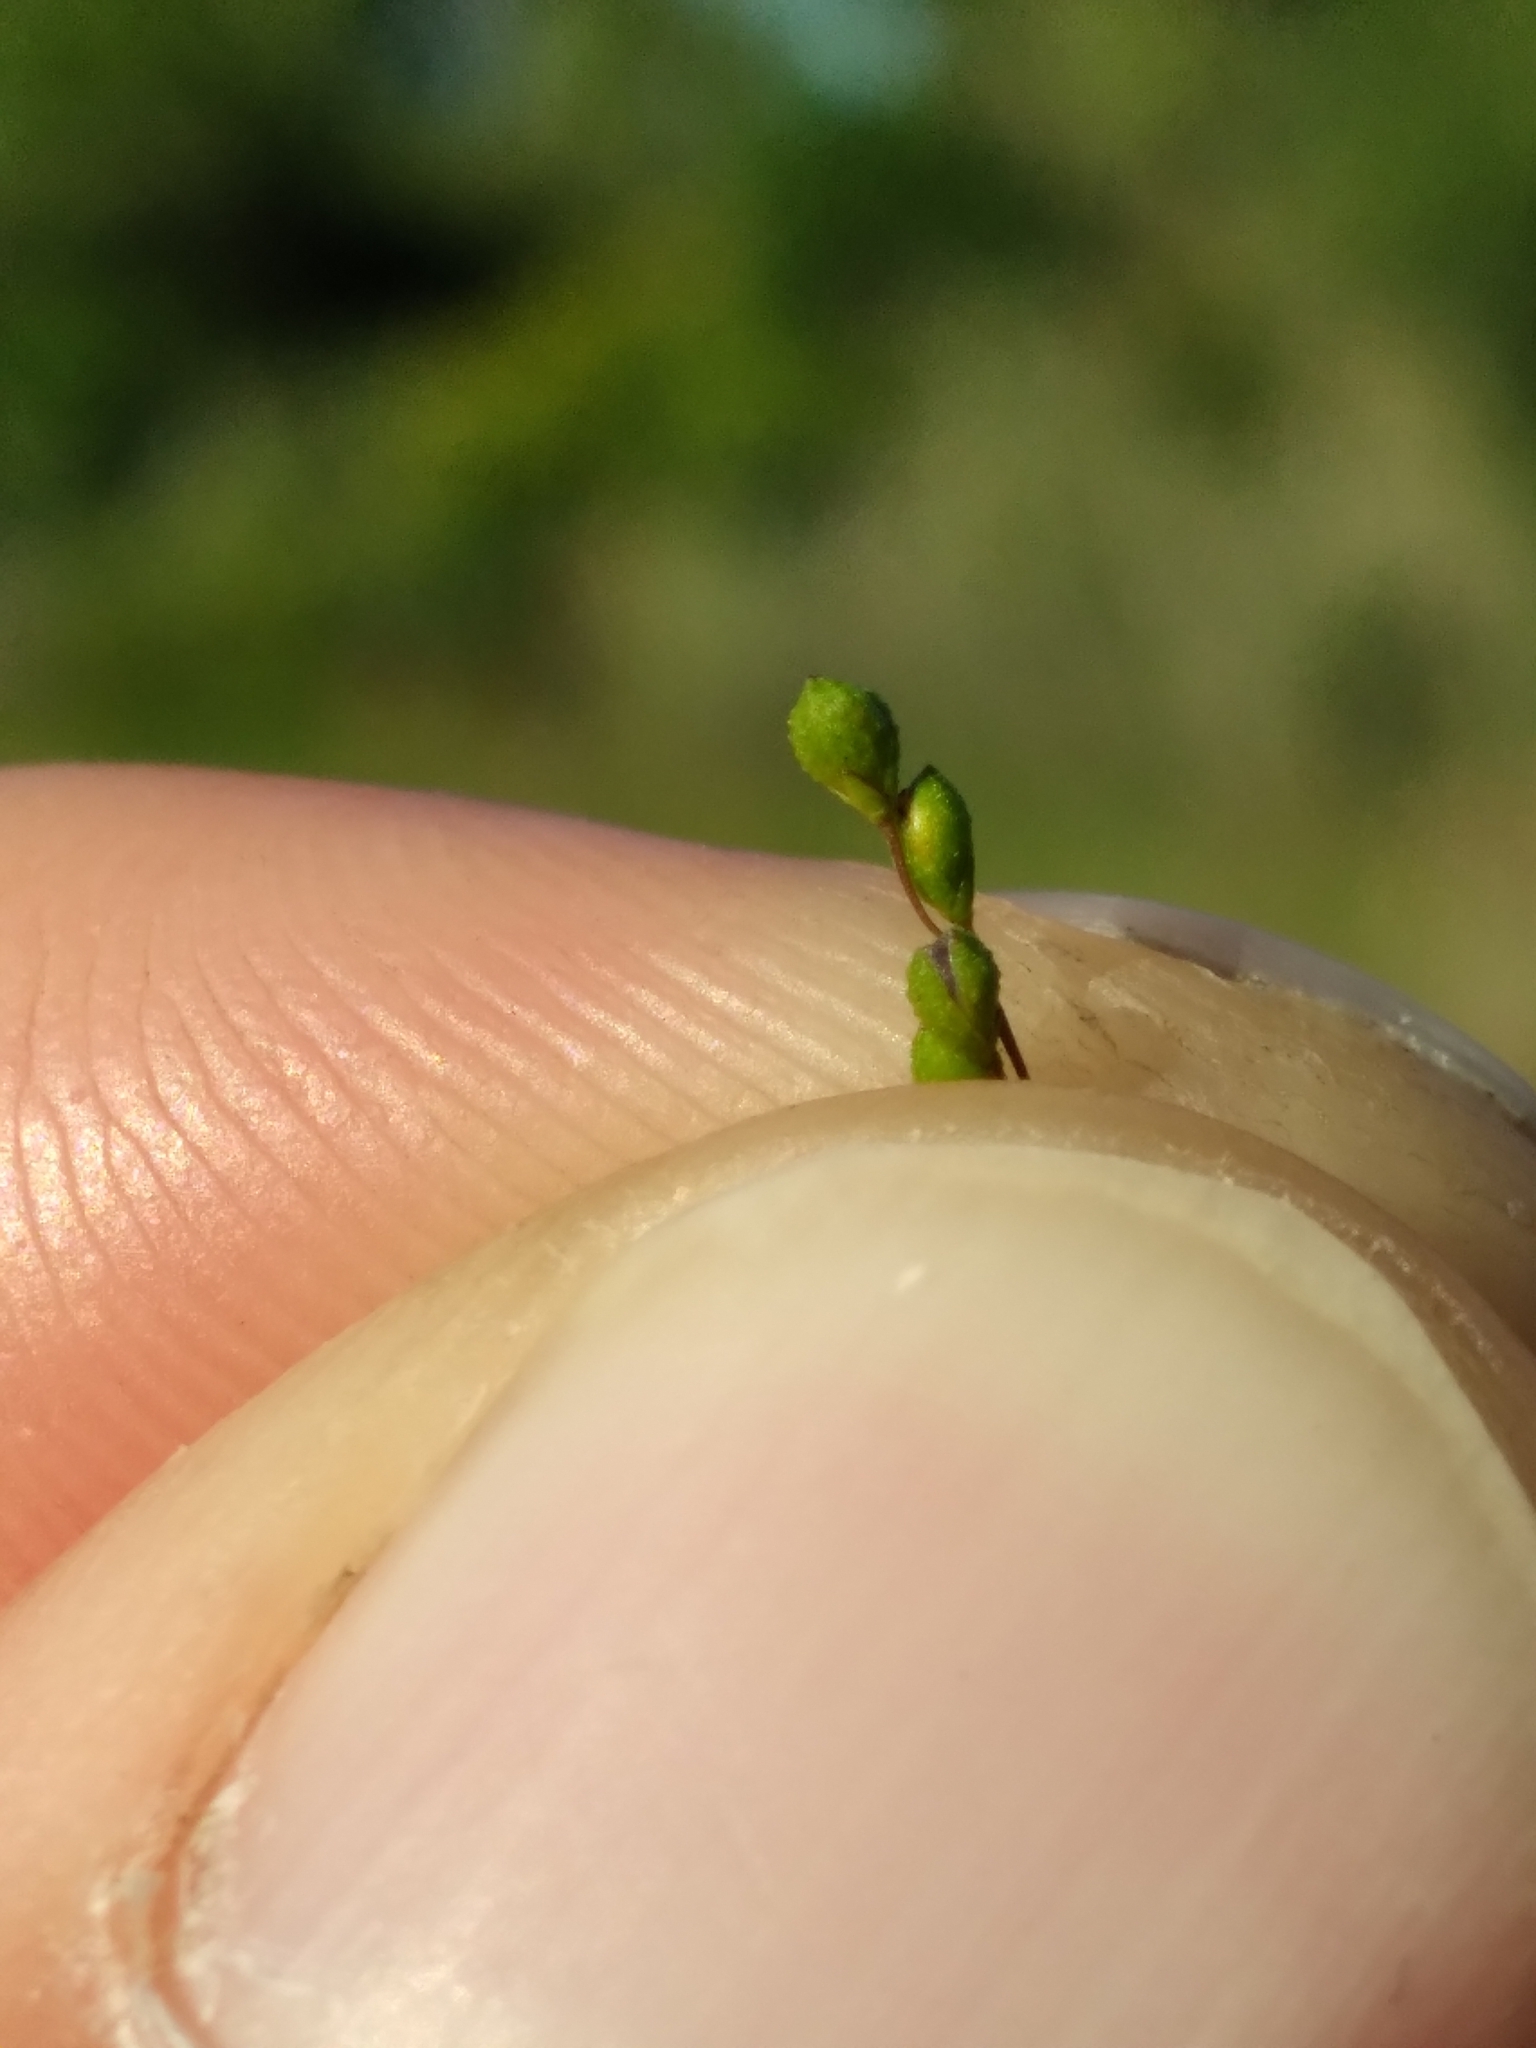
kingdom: Plantae
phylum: Tracheophyta
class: Liliopsida
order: Poales
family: Poaceae
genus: Kellochloa
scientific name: Kellochloa verrucosa
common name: Warty panic grass
